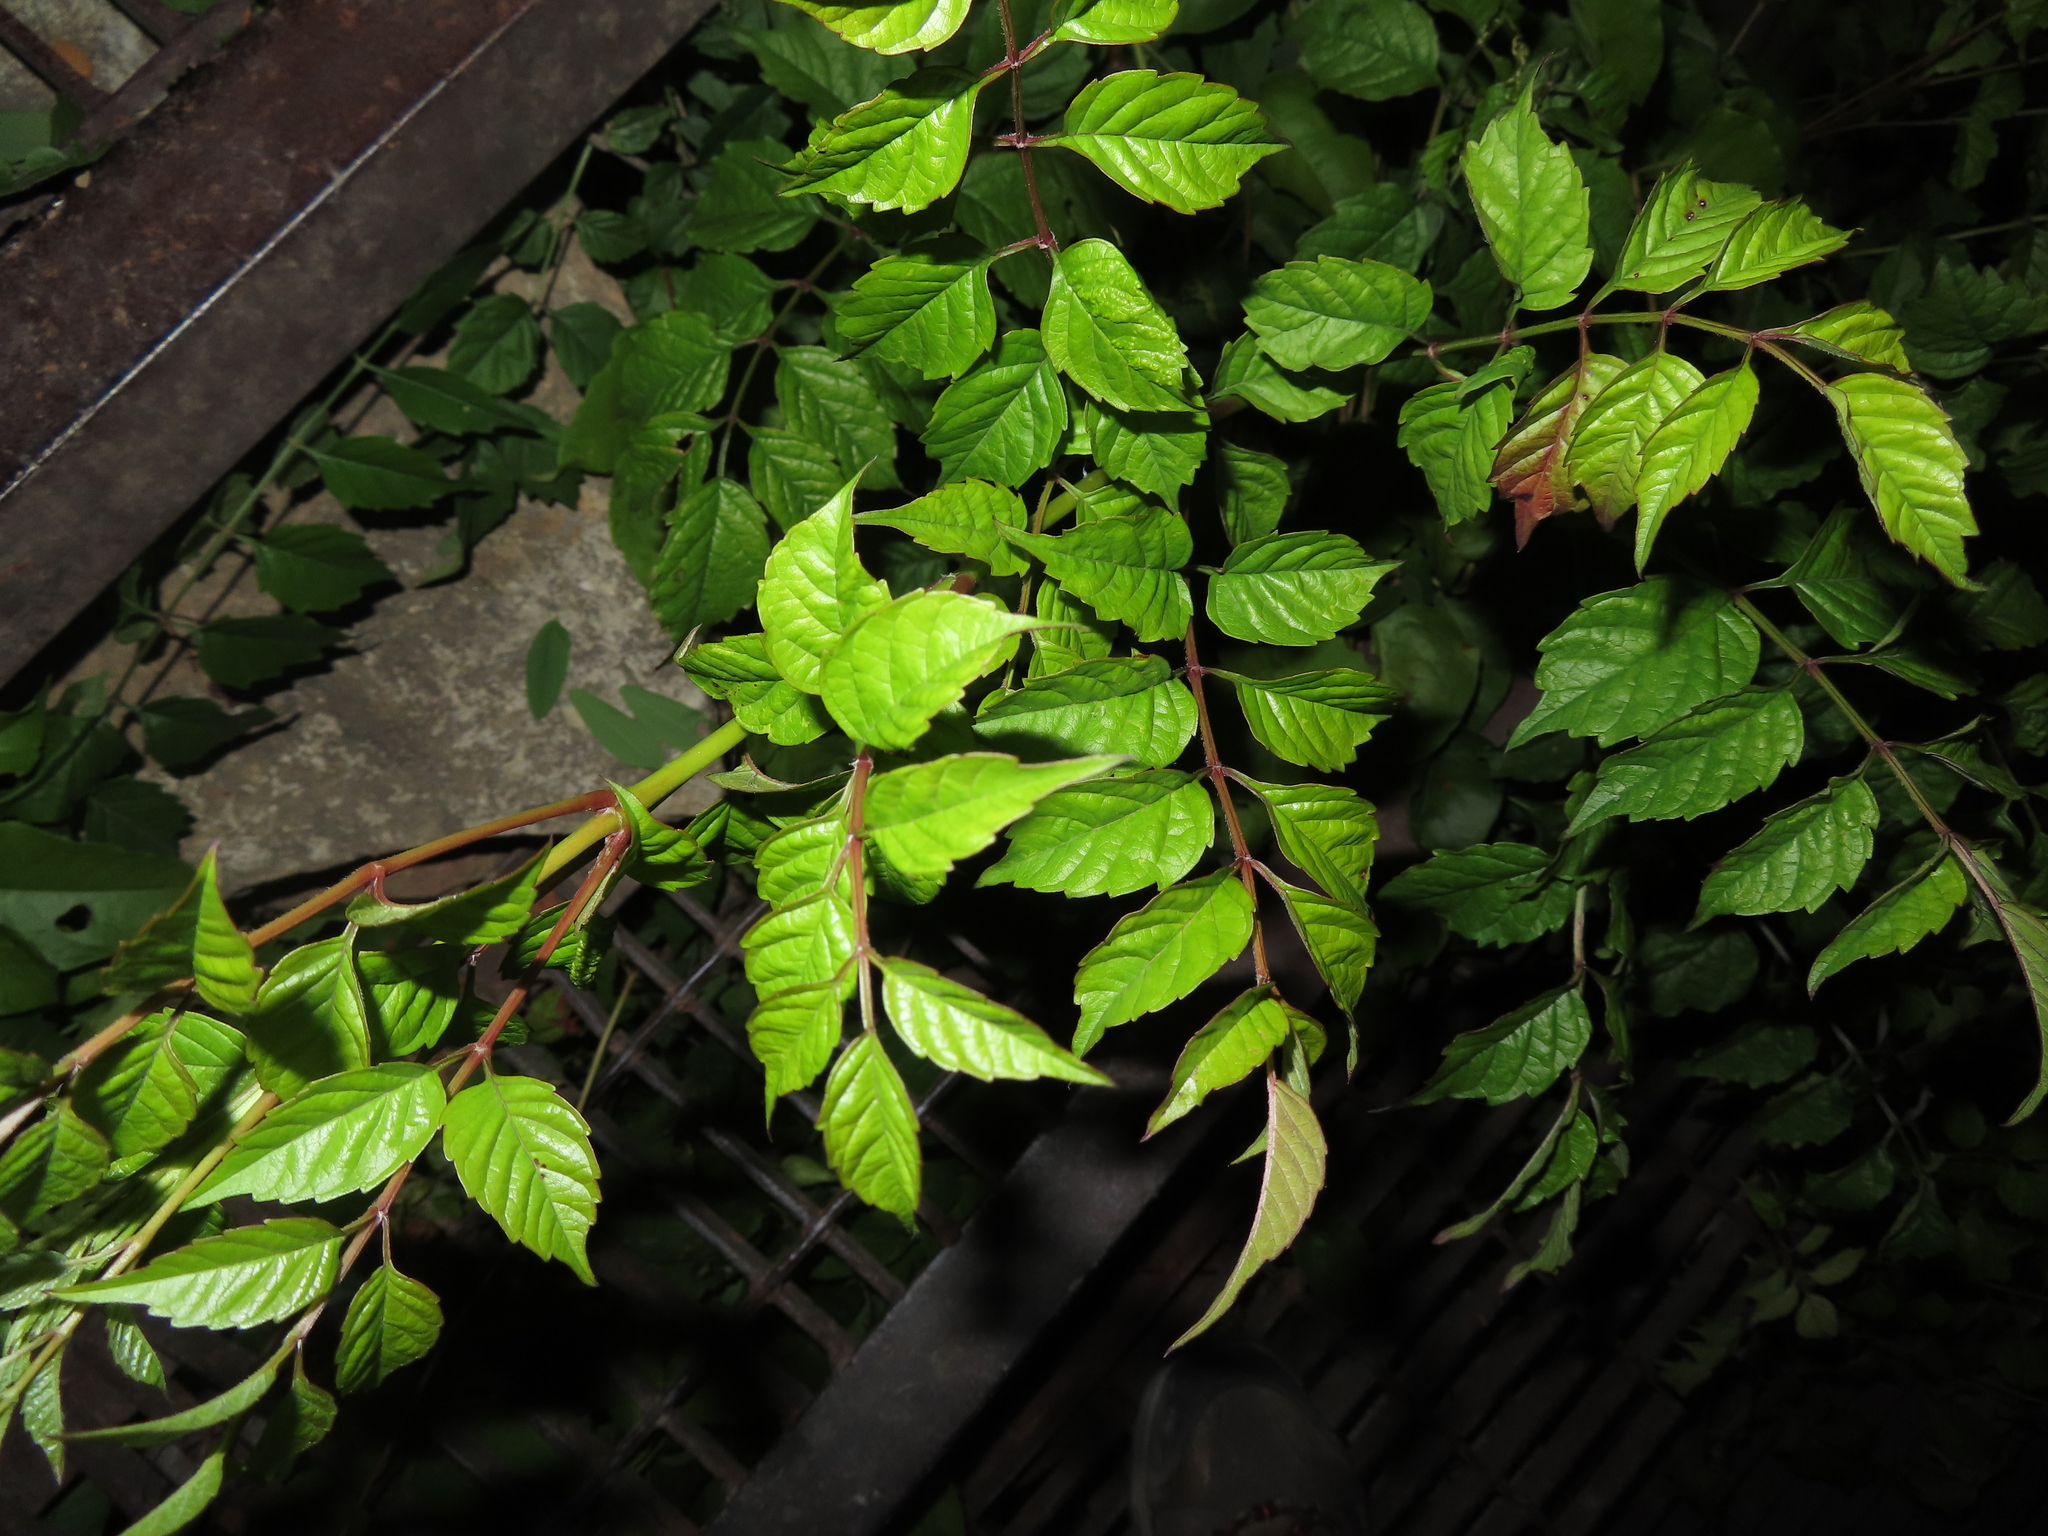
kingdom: Plantae
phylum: Tracheophyta
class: Magnoliopsida
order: Lamiales
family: Bignoniaceae
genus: Campsis
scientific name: Campsis radicans
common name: Trumpet-creeper
